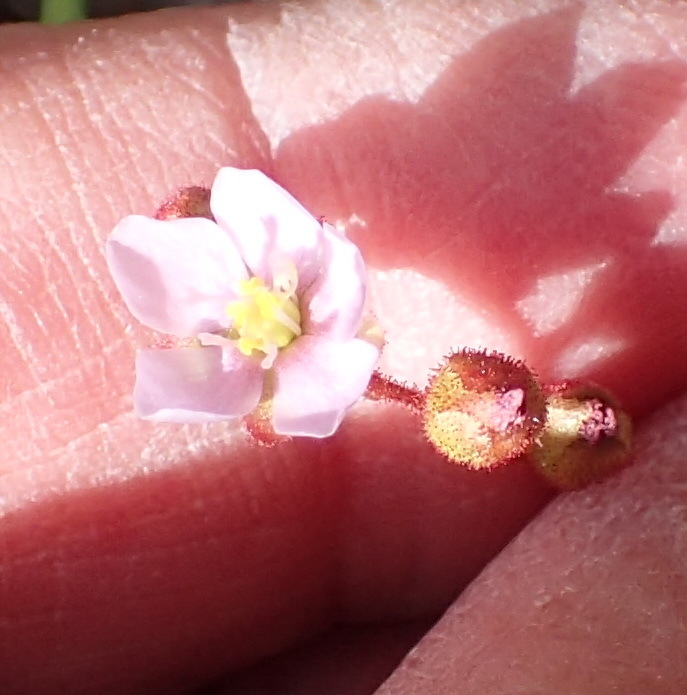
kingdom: Plantae
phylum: Tracheophyta
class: Magnoliopsida
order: Caryophyllales
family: Droseraceae
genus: Drosera
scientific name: Drosera aliciae
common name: Alice sundew
